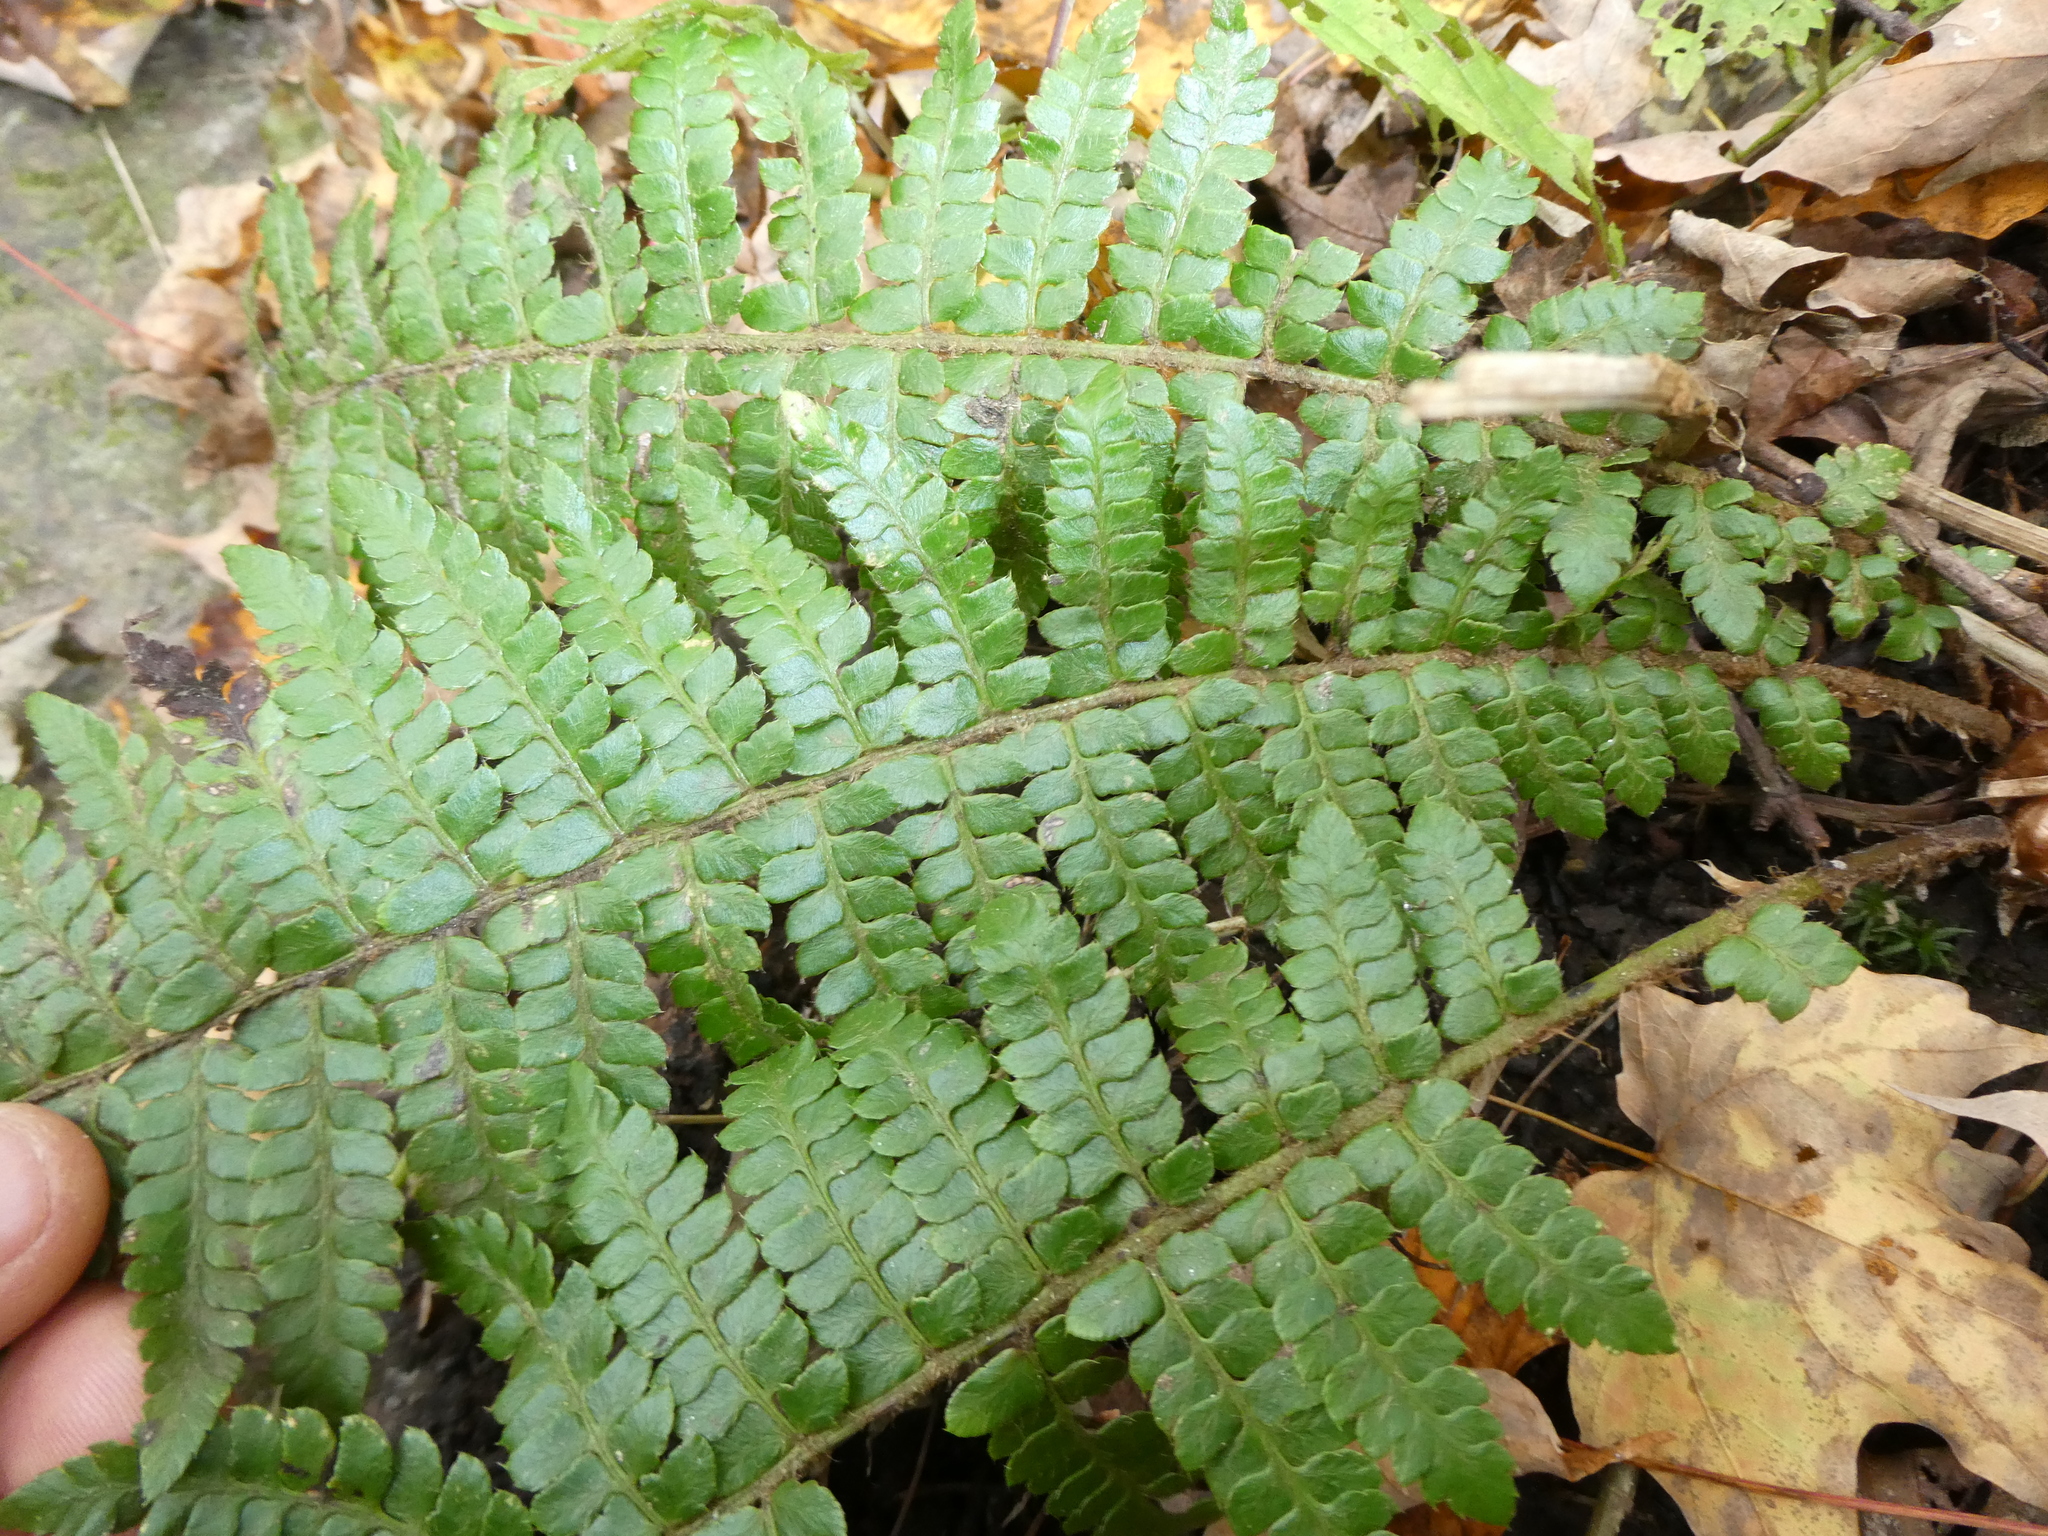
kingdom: Plantae
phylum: Tracheophyta
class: Polypodiopsida
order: Polypodiales
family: Dryopteridaceae
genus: Polystichum
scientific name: Polystichum braunii
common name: Braun's holly fern
